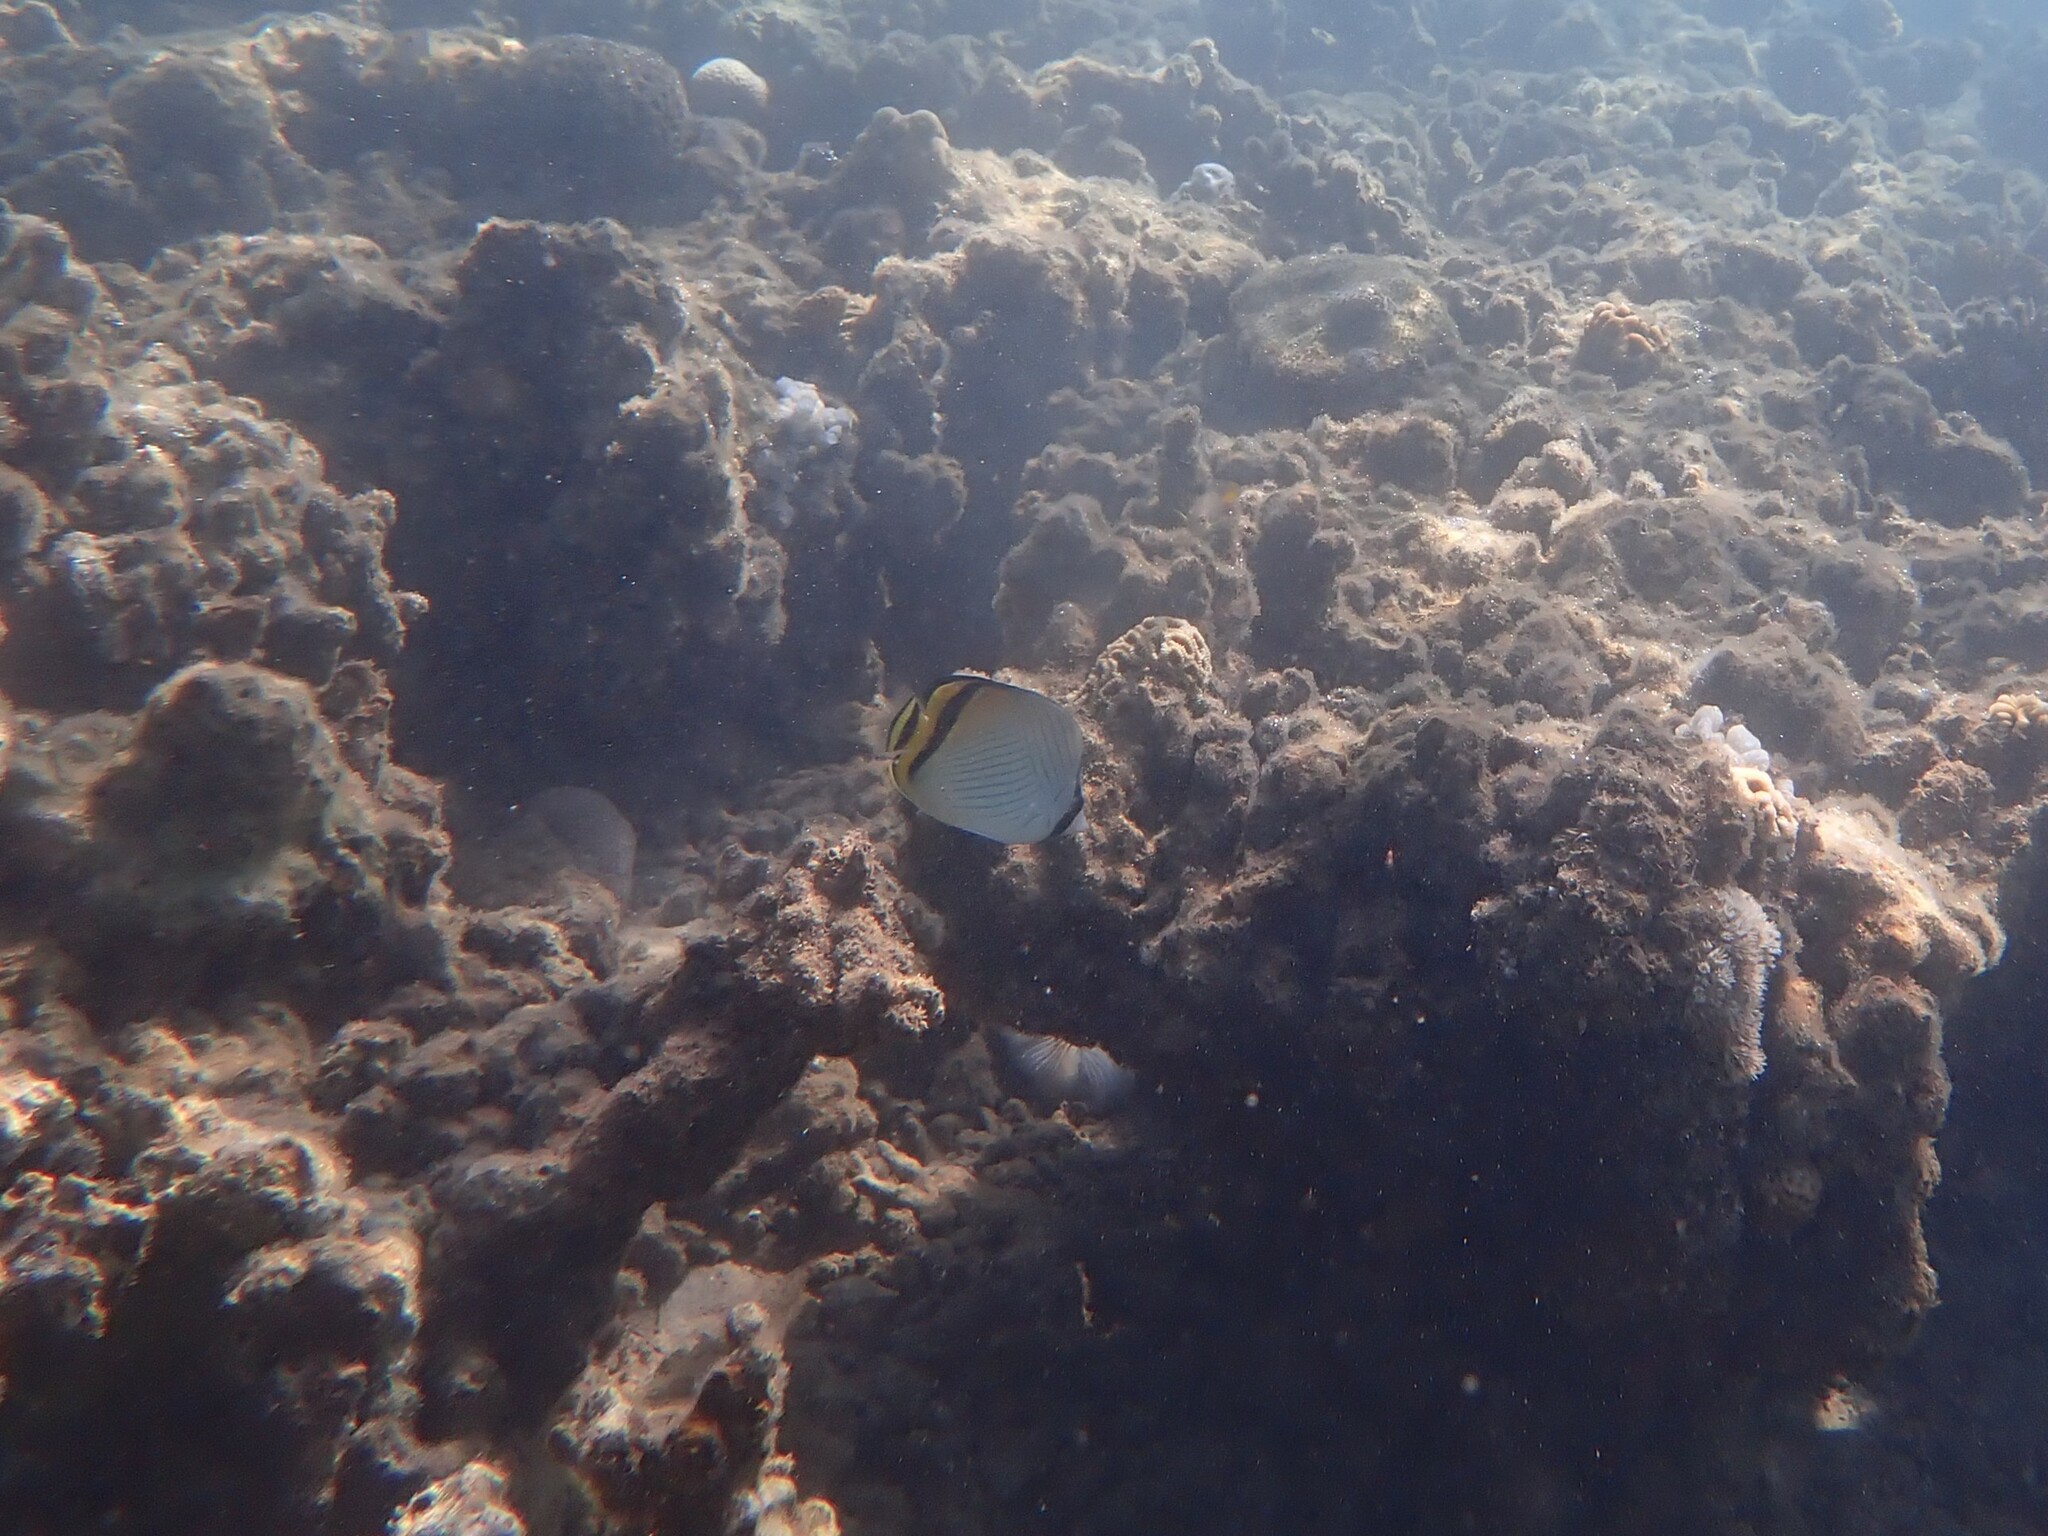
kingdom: Animalia
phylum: Chordata
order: Perciformes
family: Chaetodontidae
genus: Chaetodon
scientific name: Chaetodon vagabundus
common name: Vagabond butterflyfish
